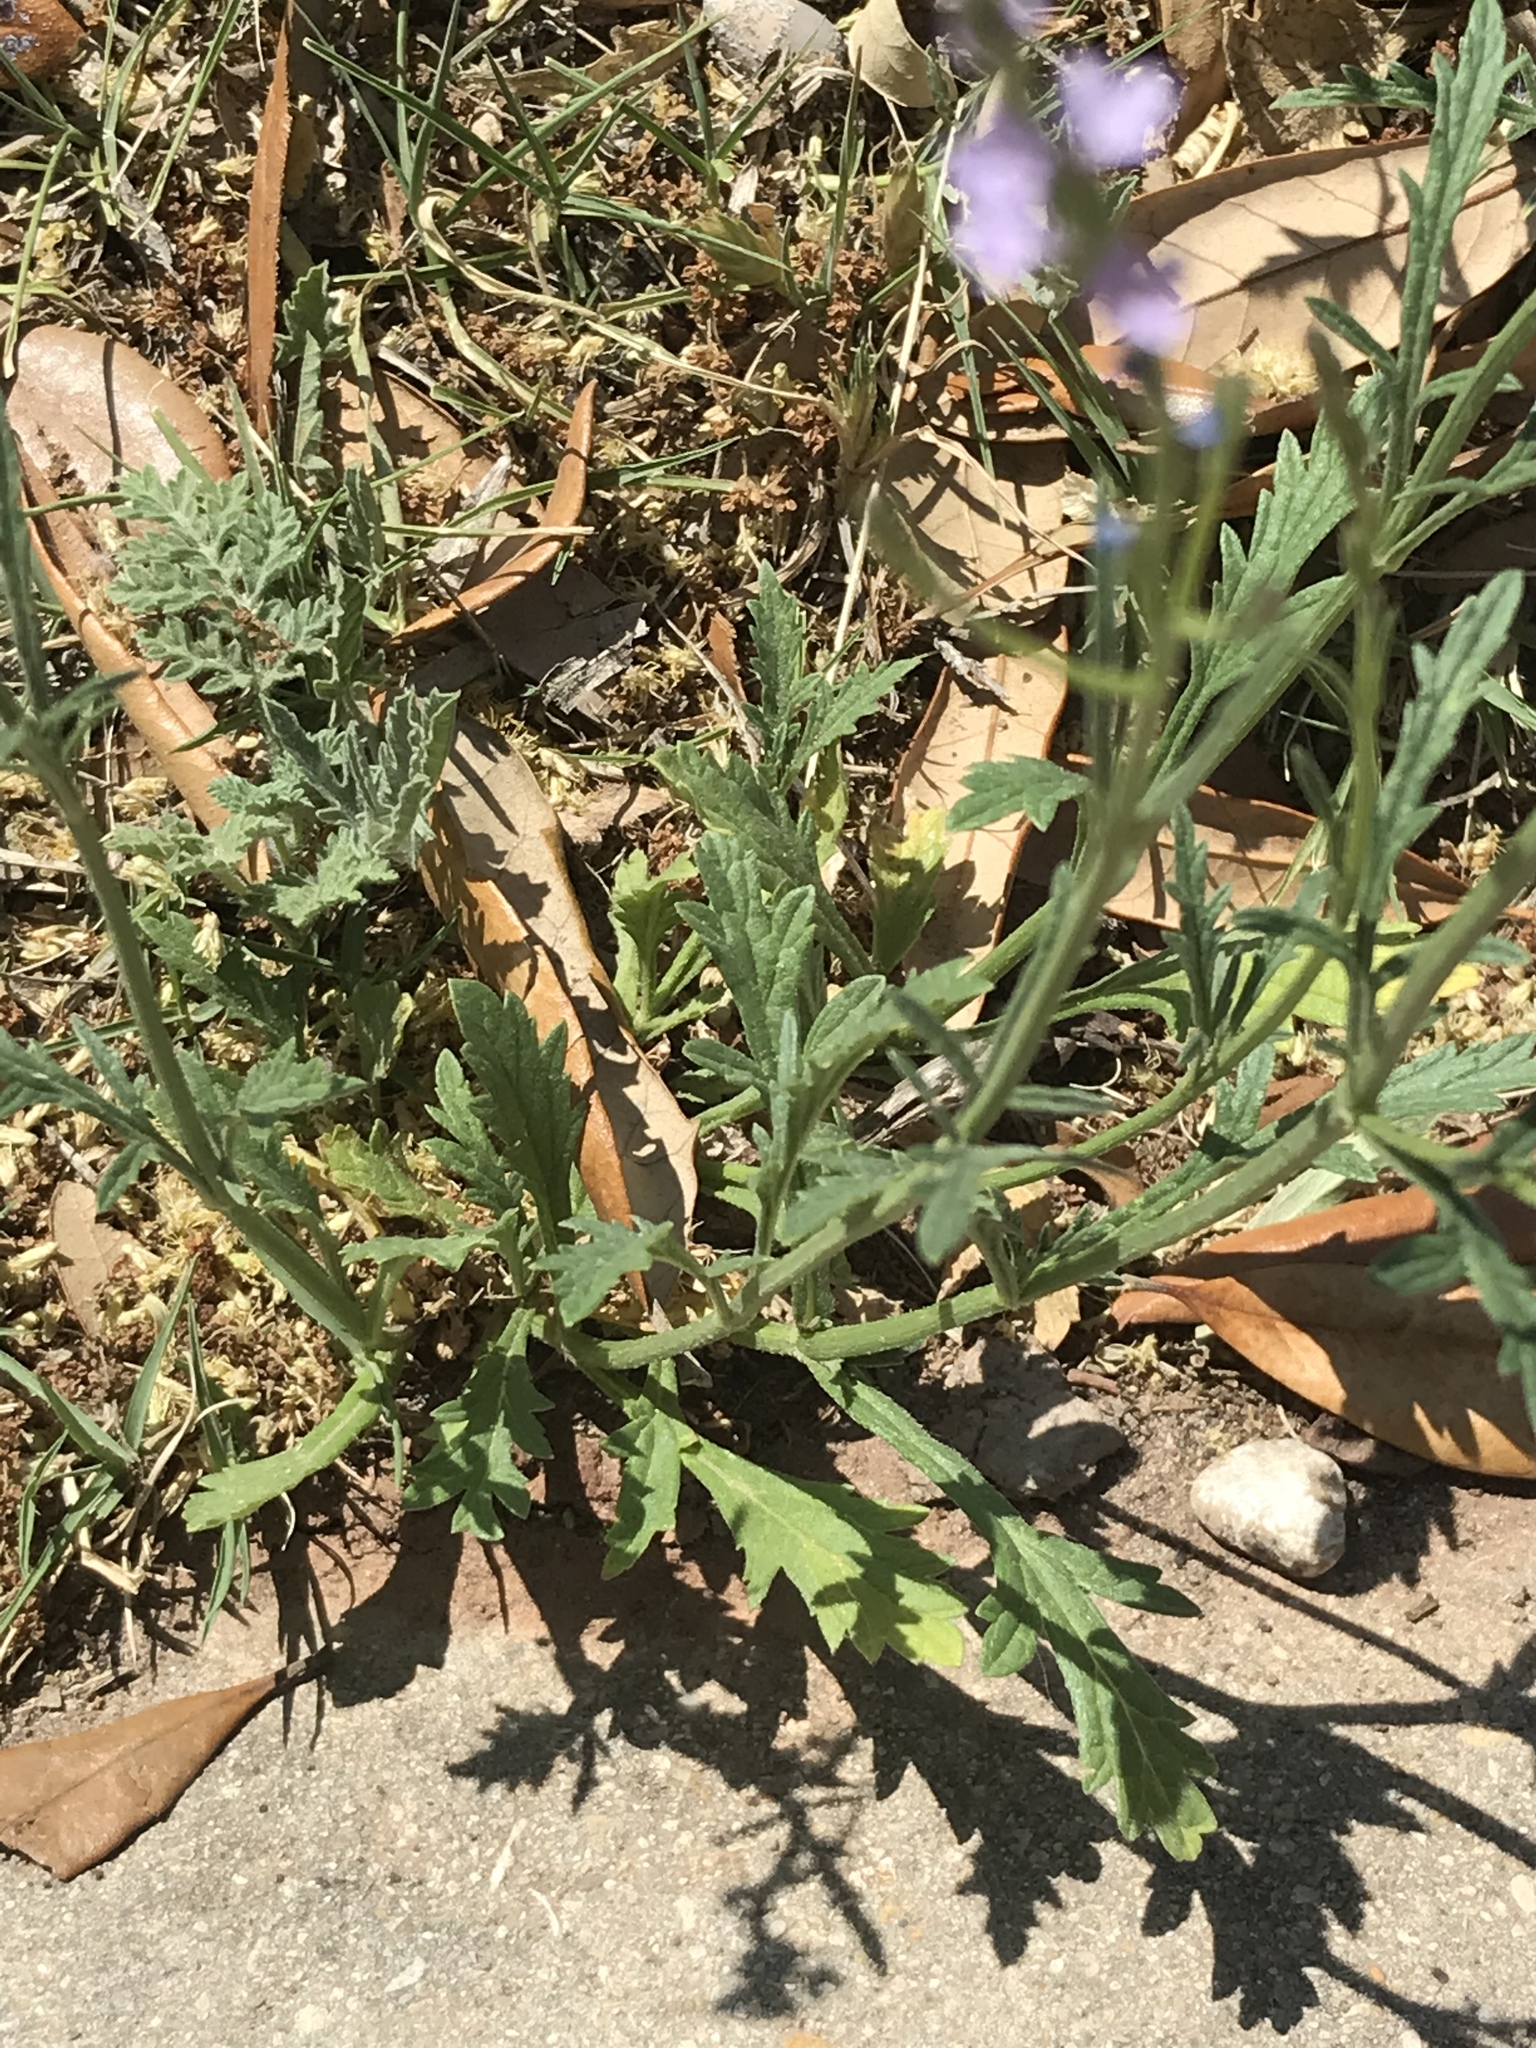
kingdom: Plantae
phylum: Tracheophyta
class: Magnoliopsida
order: Lamiales
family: Verbenaceae
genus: Verbena
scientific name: Verbena halei
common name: Texas vervain
